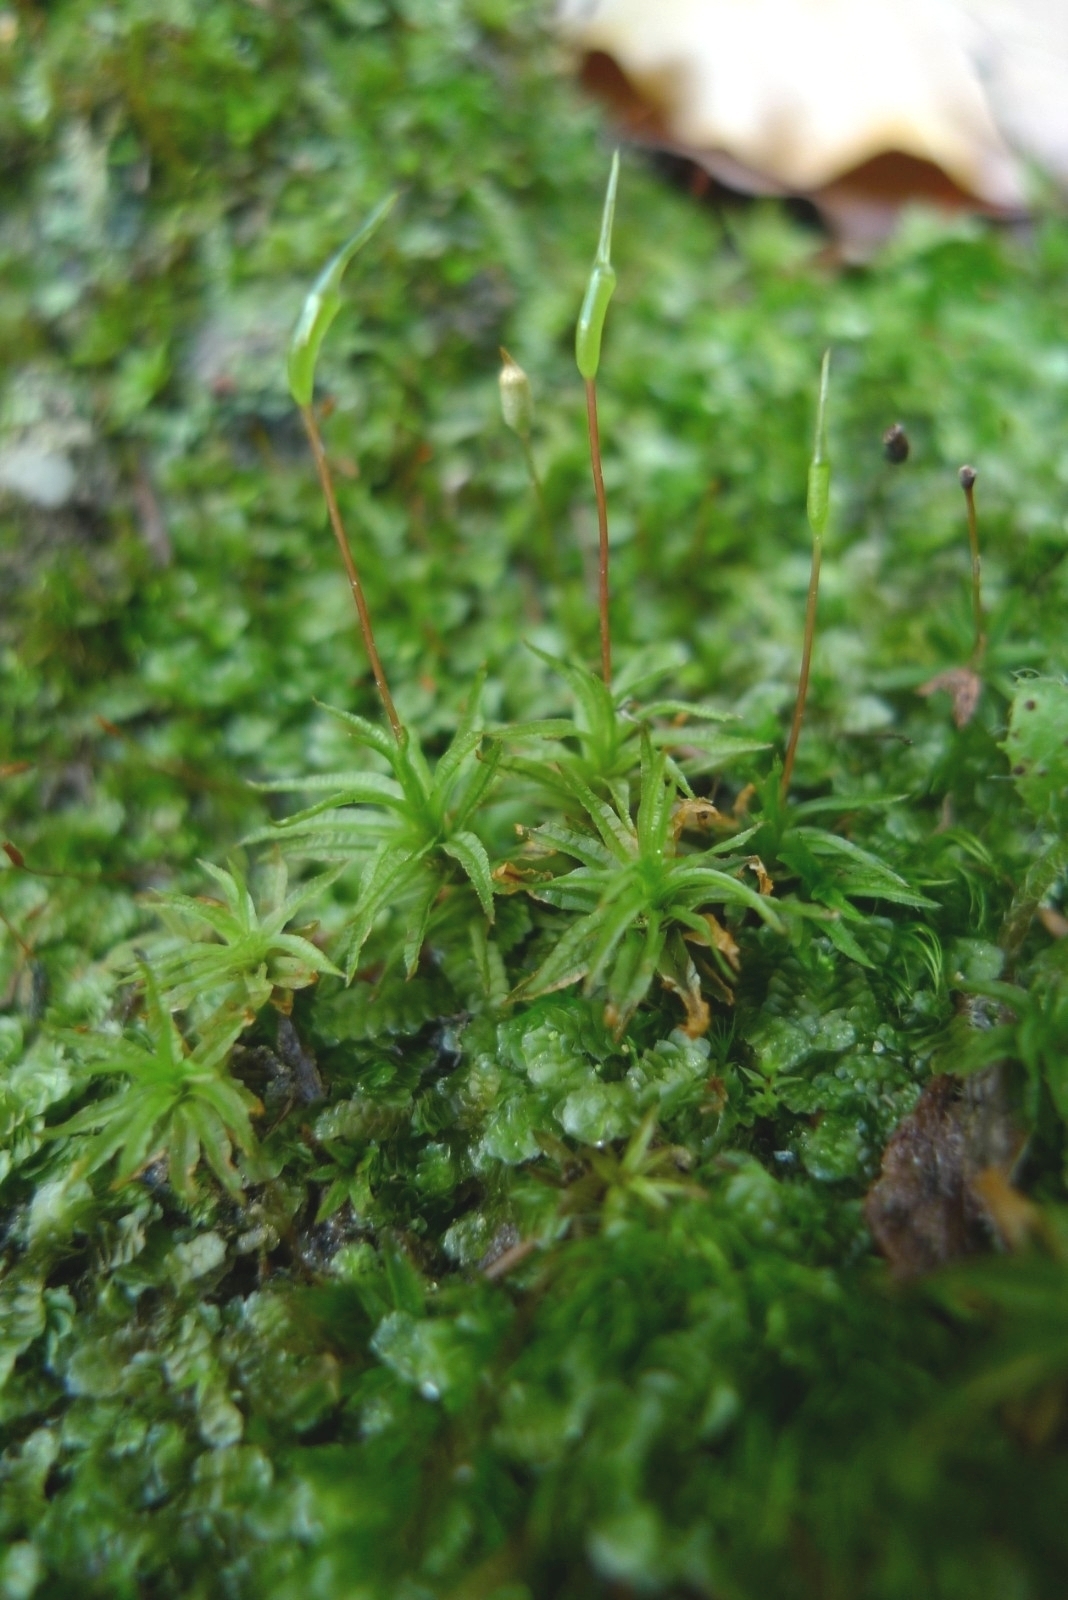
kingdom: Plantae
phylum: Bryophyta
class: Polytrichopsida
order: Polytrichales
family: Polytrichaceae
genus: Atrichum
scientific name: Atrichum undulatum
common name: Common smoothcap
